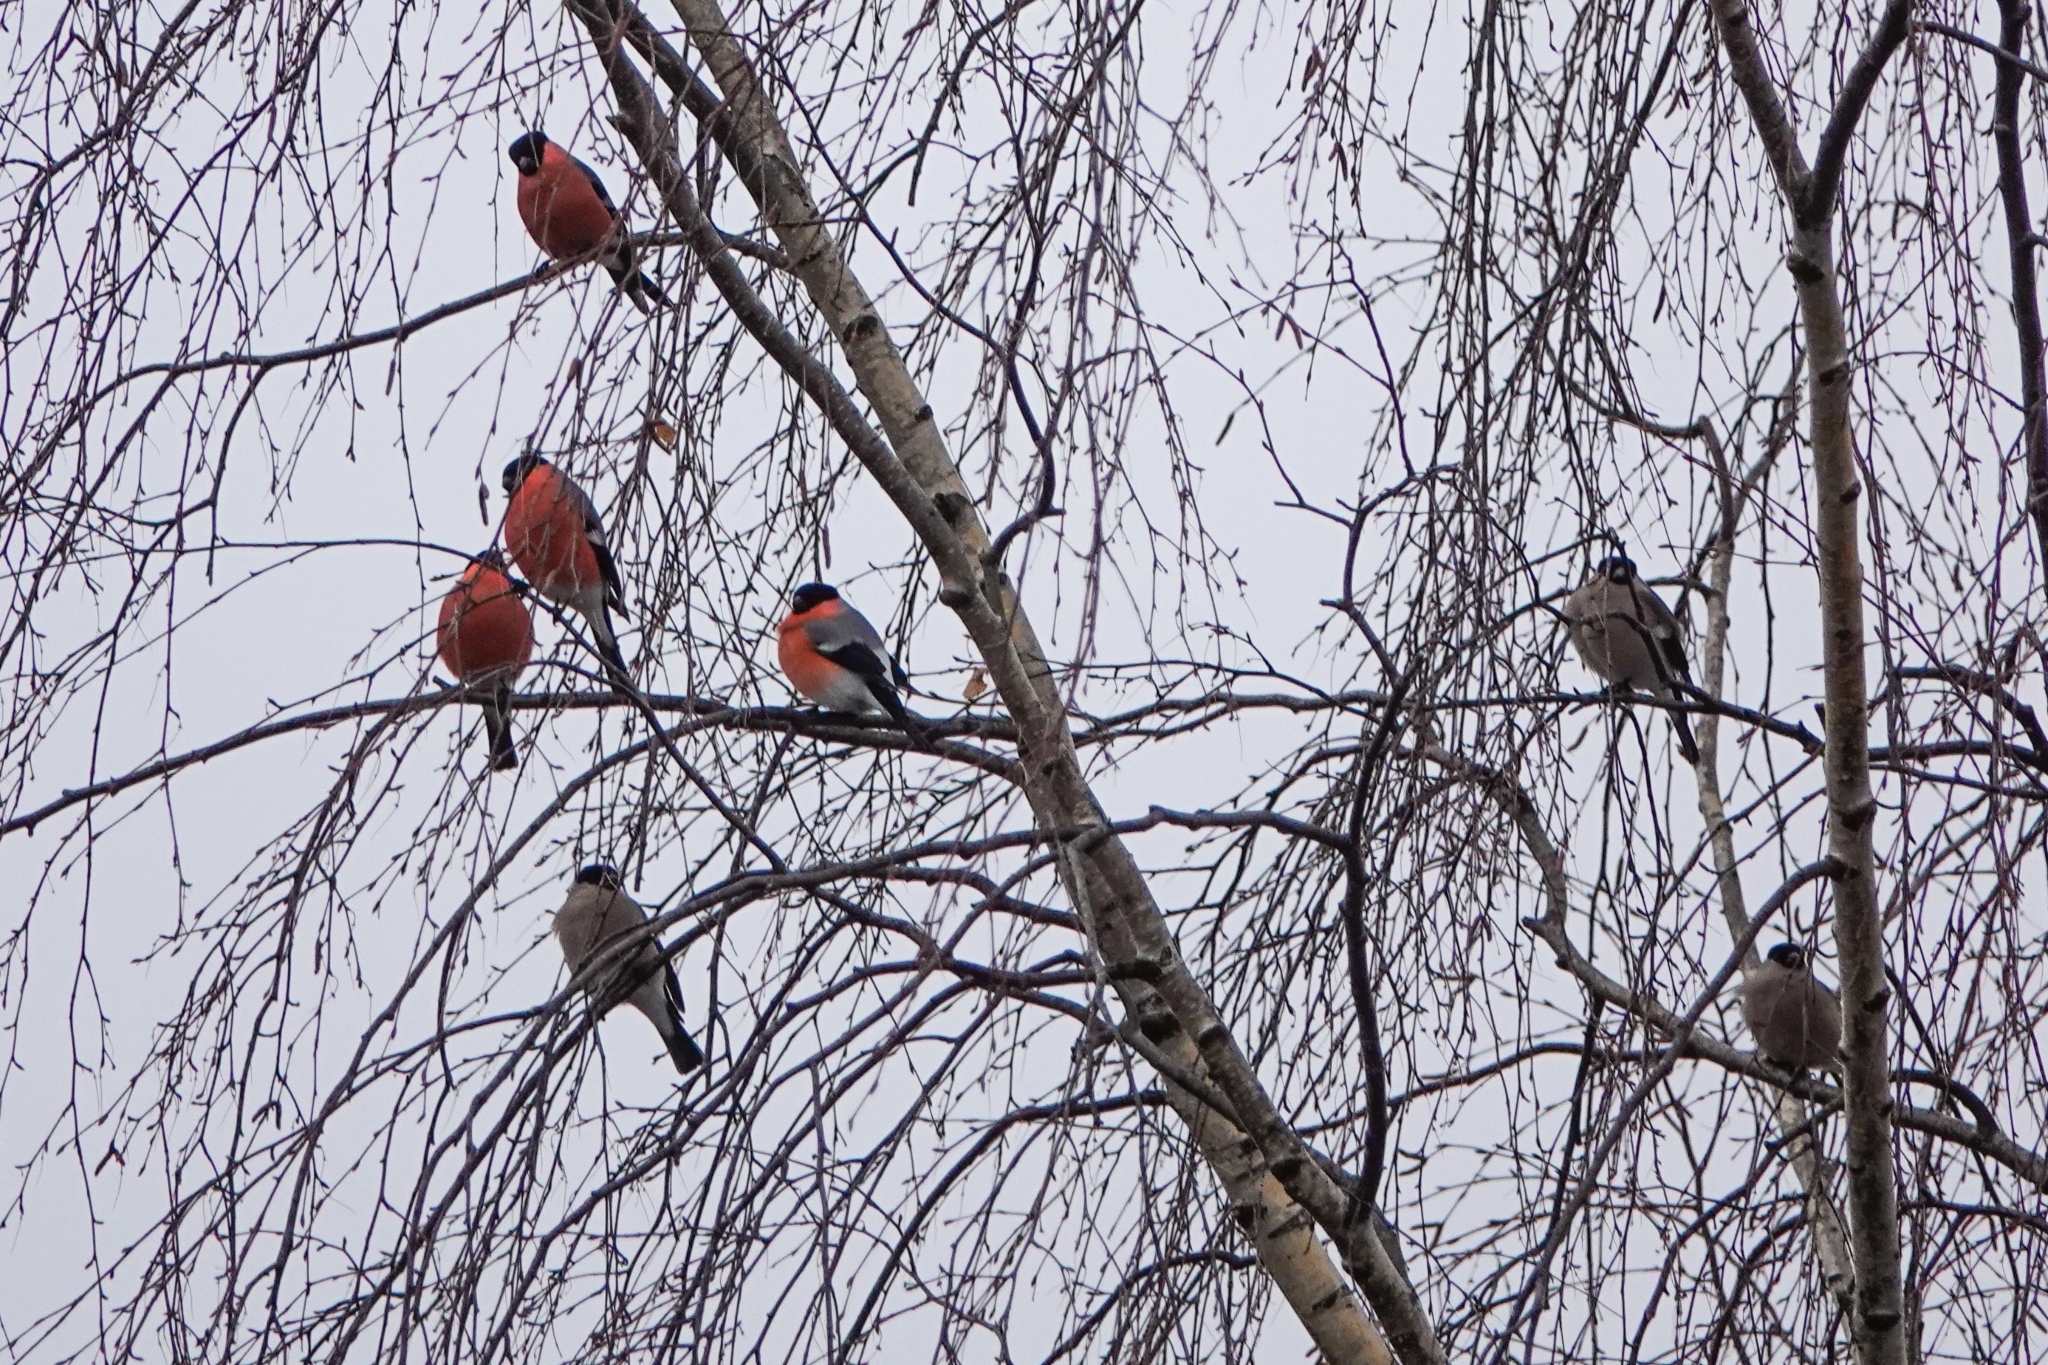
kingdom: Animalia
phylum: Chordata
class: Aves
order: Passeriformes
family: Fringillidae
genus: Pyrrhula
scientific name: Pyrrhula pyrrhula
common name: Eurasian bullfinch
